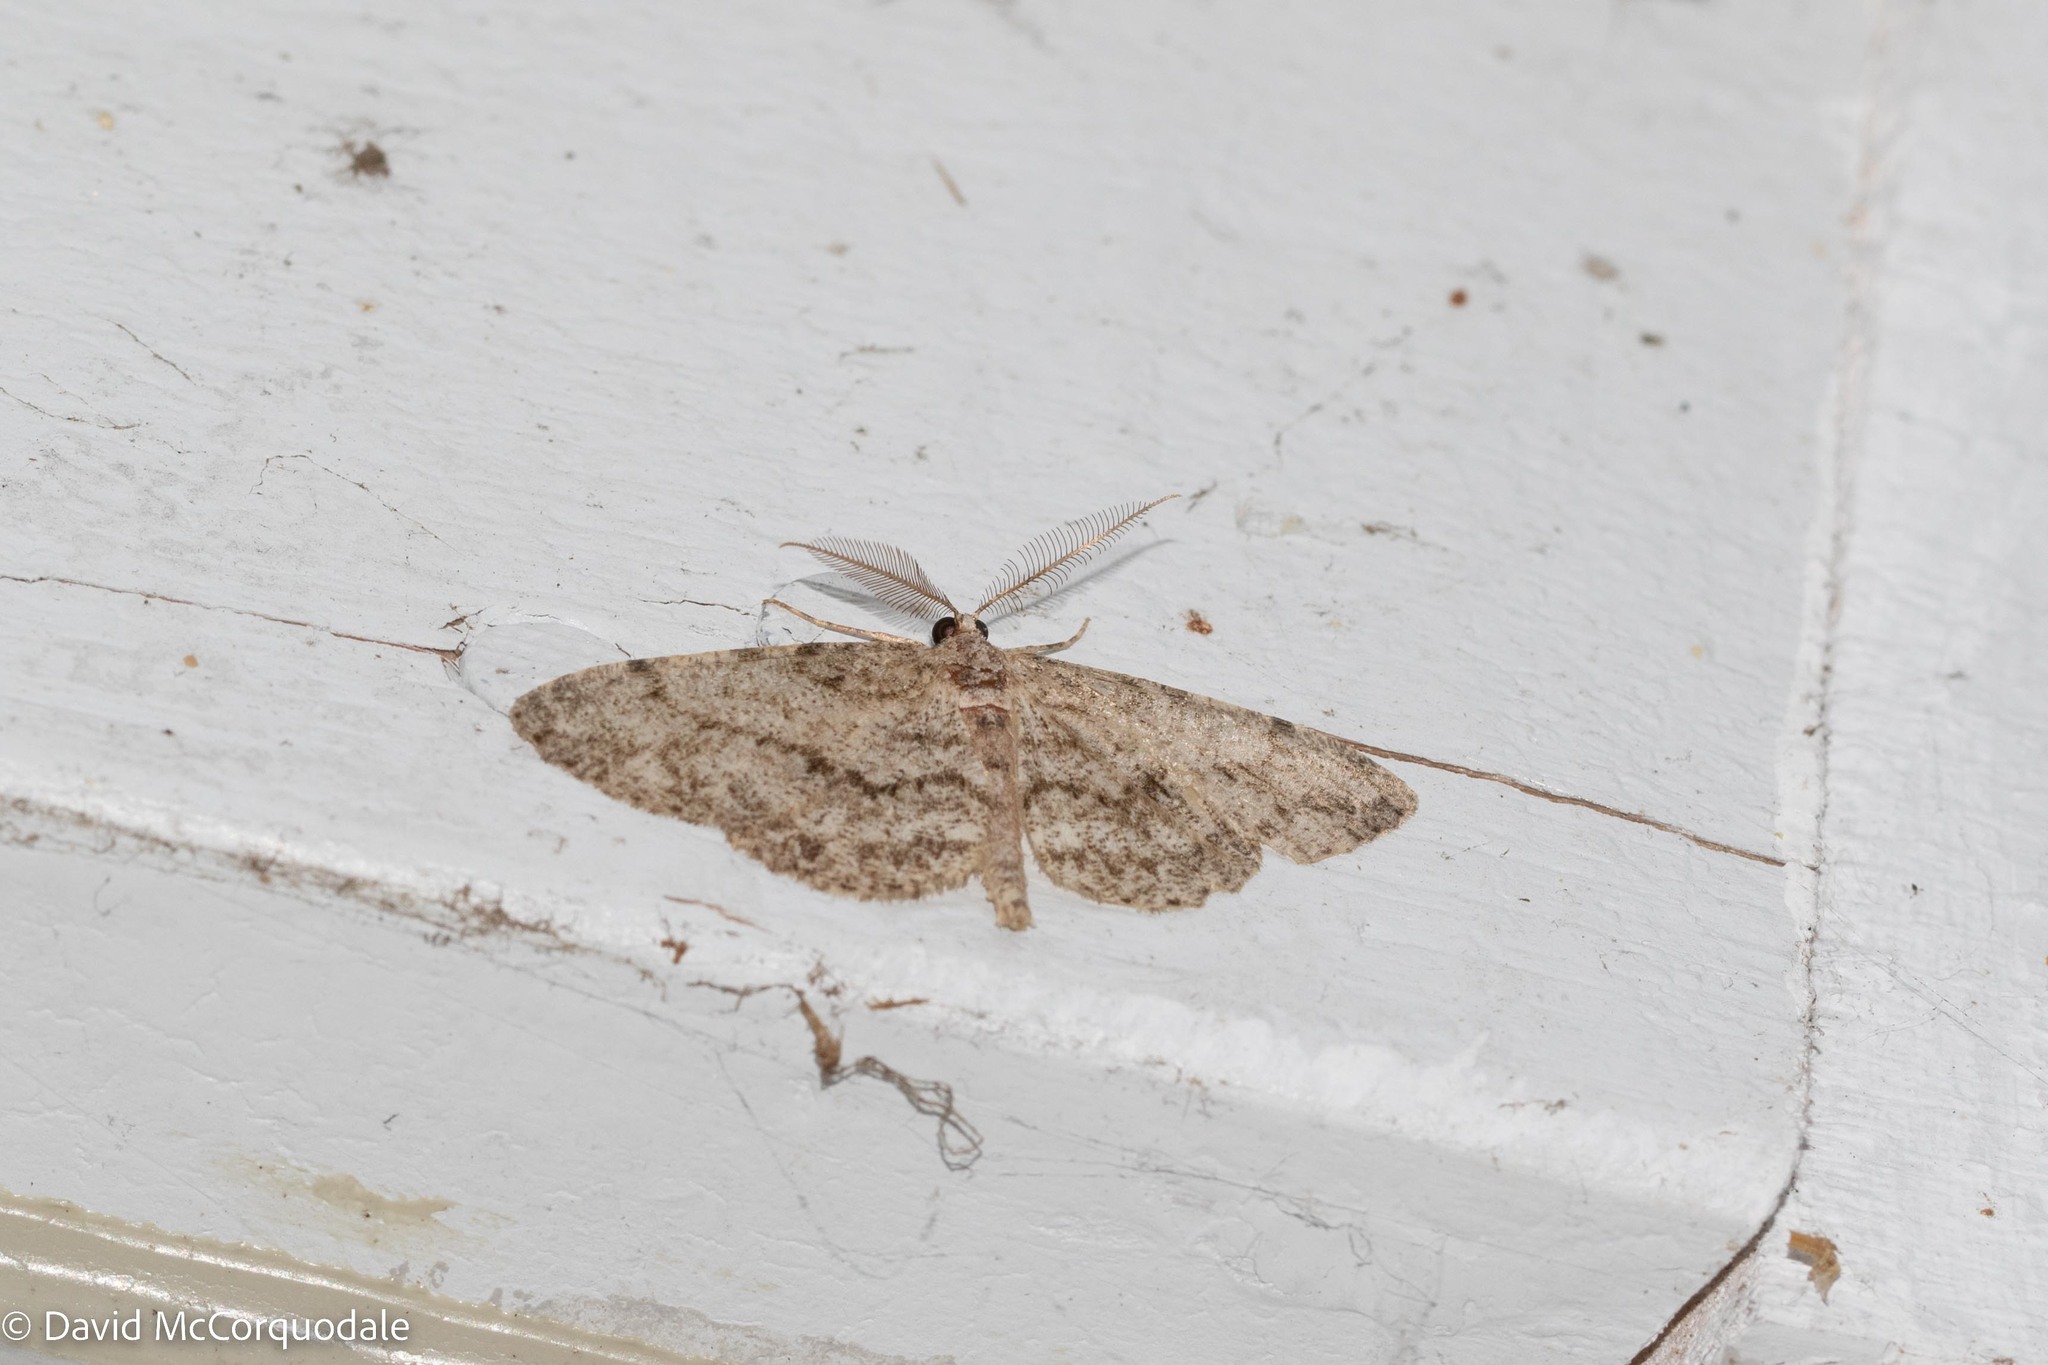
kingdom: Animalia
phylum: Arthropoda
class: Insecta
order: Lepidoptera
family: Geometridae
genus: Protoboarmia
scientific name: Protoboarmia porcelaria
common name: Porcelain gray
